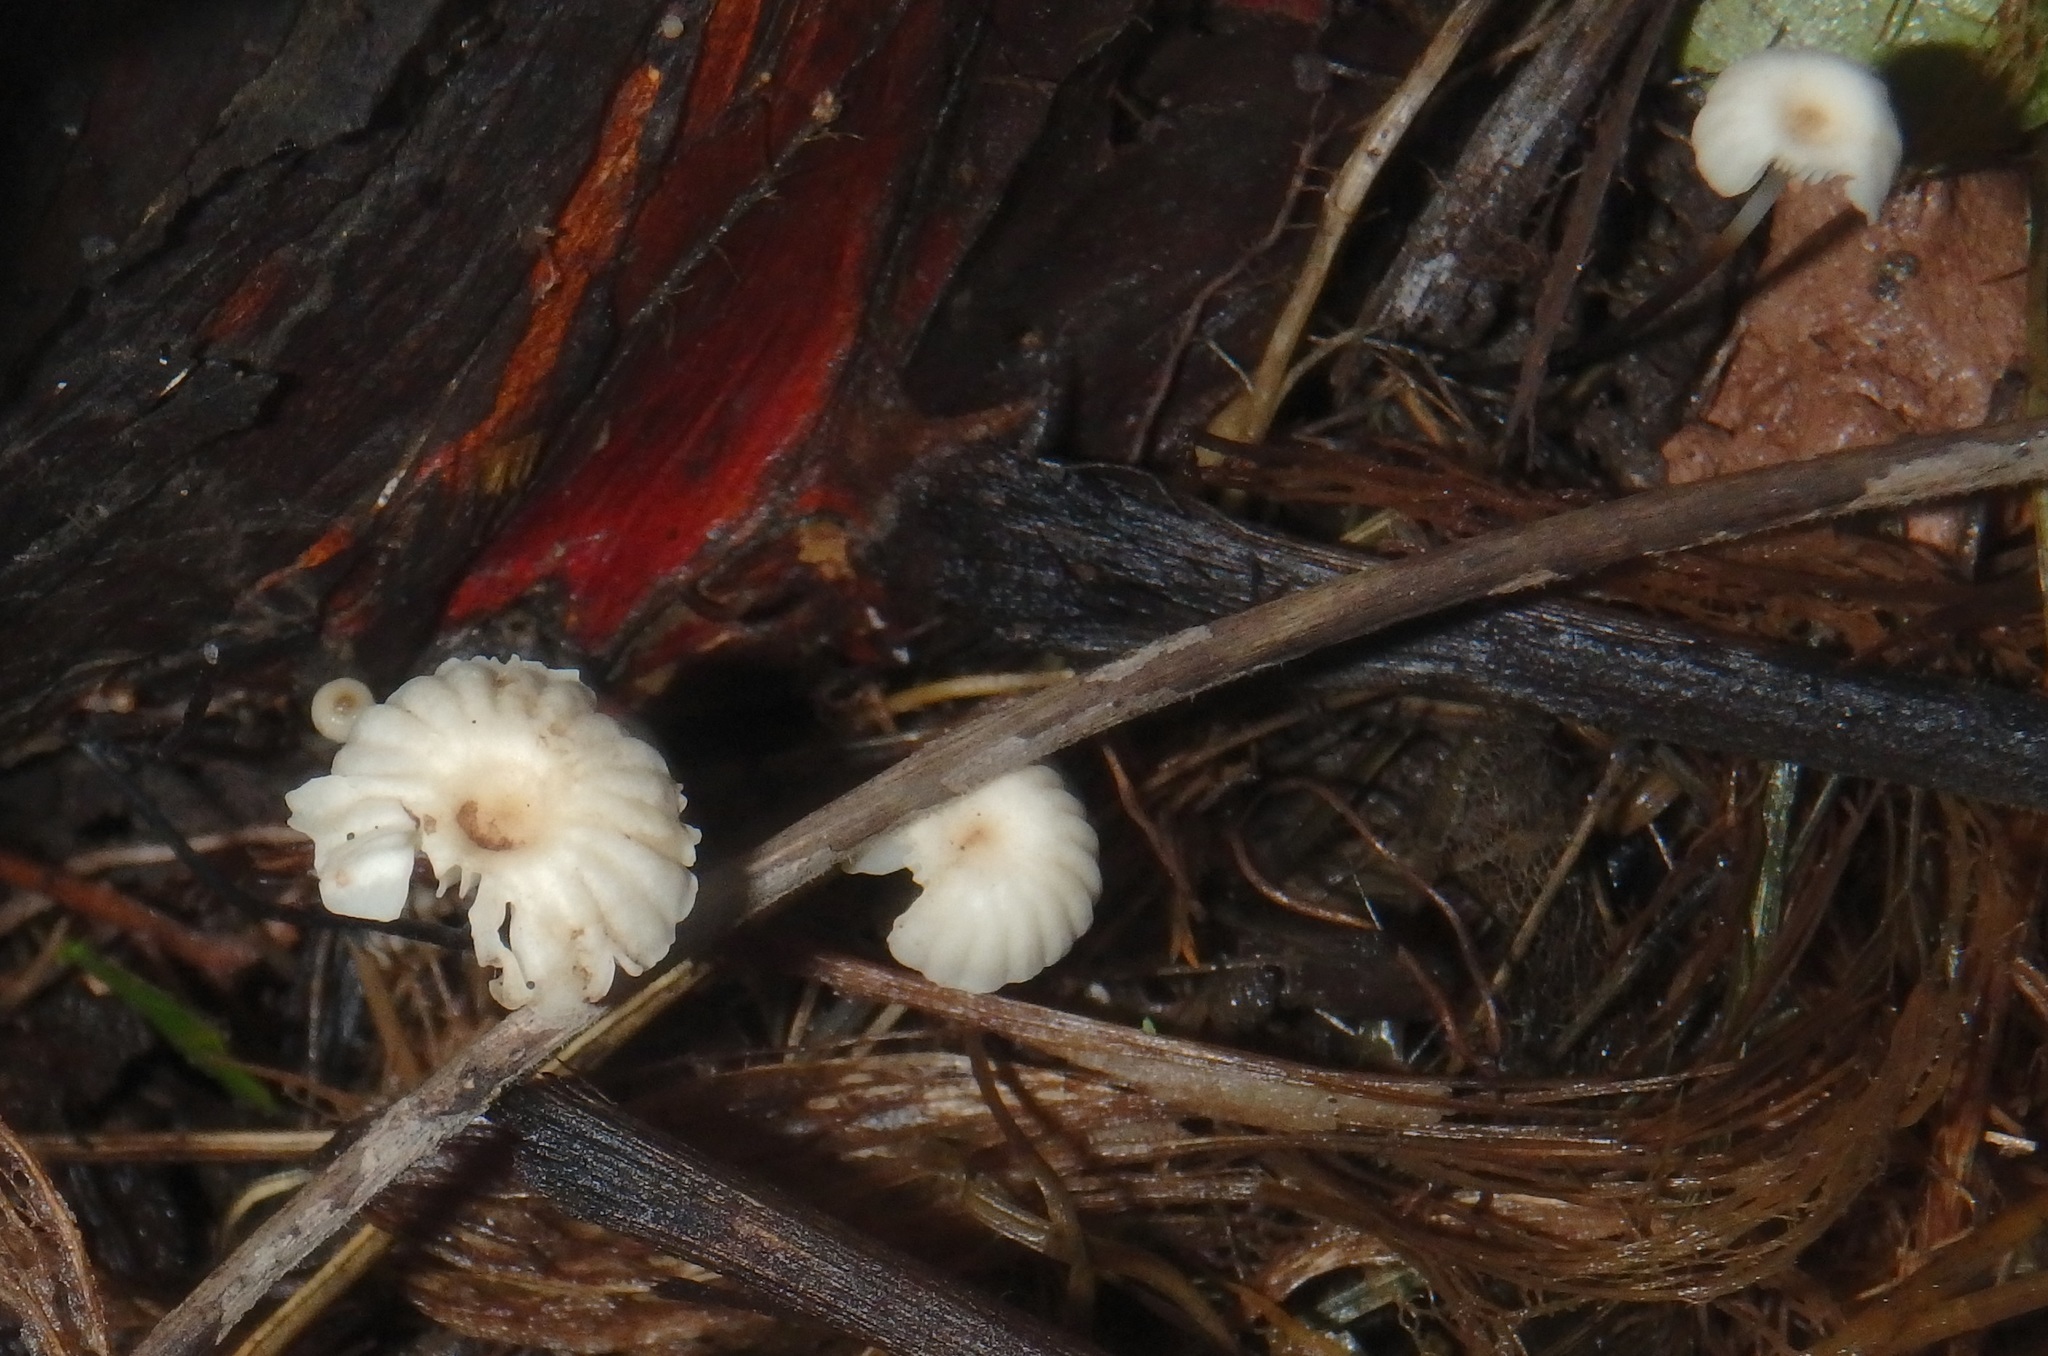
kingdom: Fungi
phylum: Basidiomycota
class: Agaricomycetes
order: Agaricales
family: Marasmiaceae
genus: Marasmius
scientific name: Marasmius rotula
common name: Collared parachute
